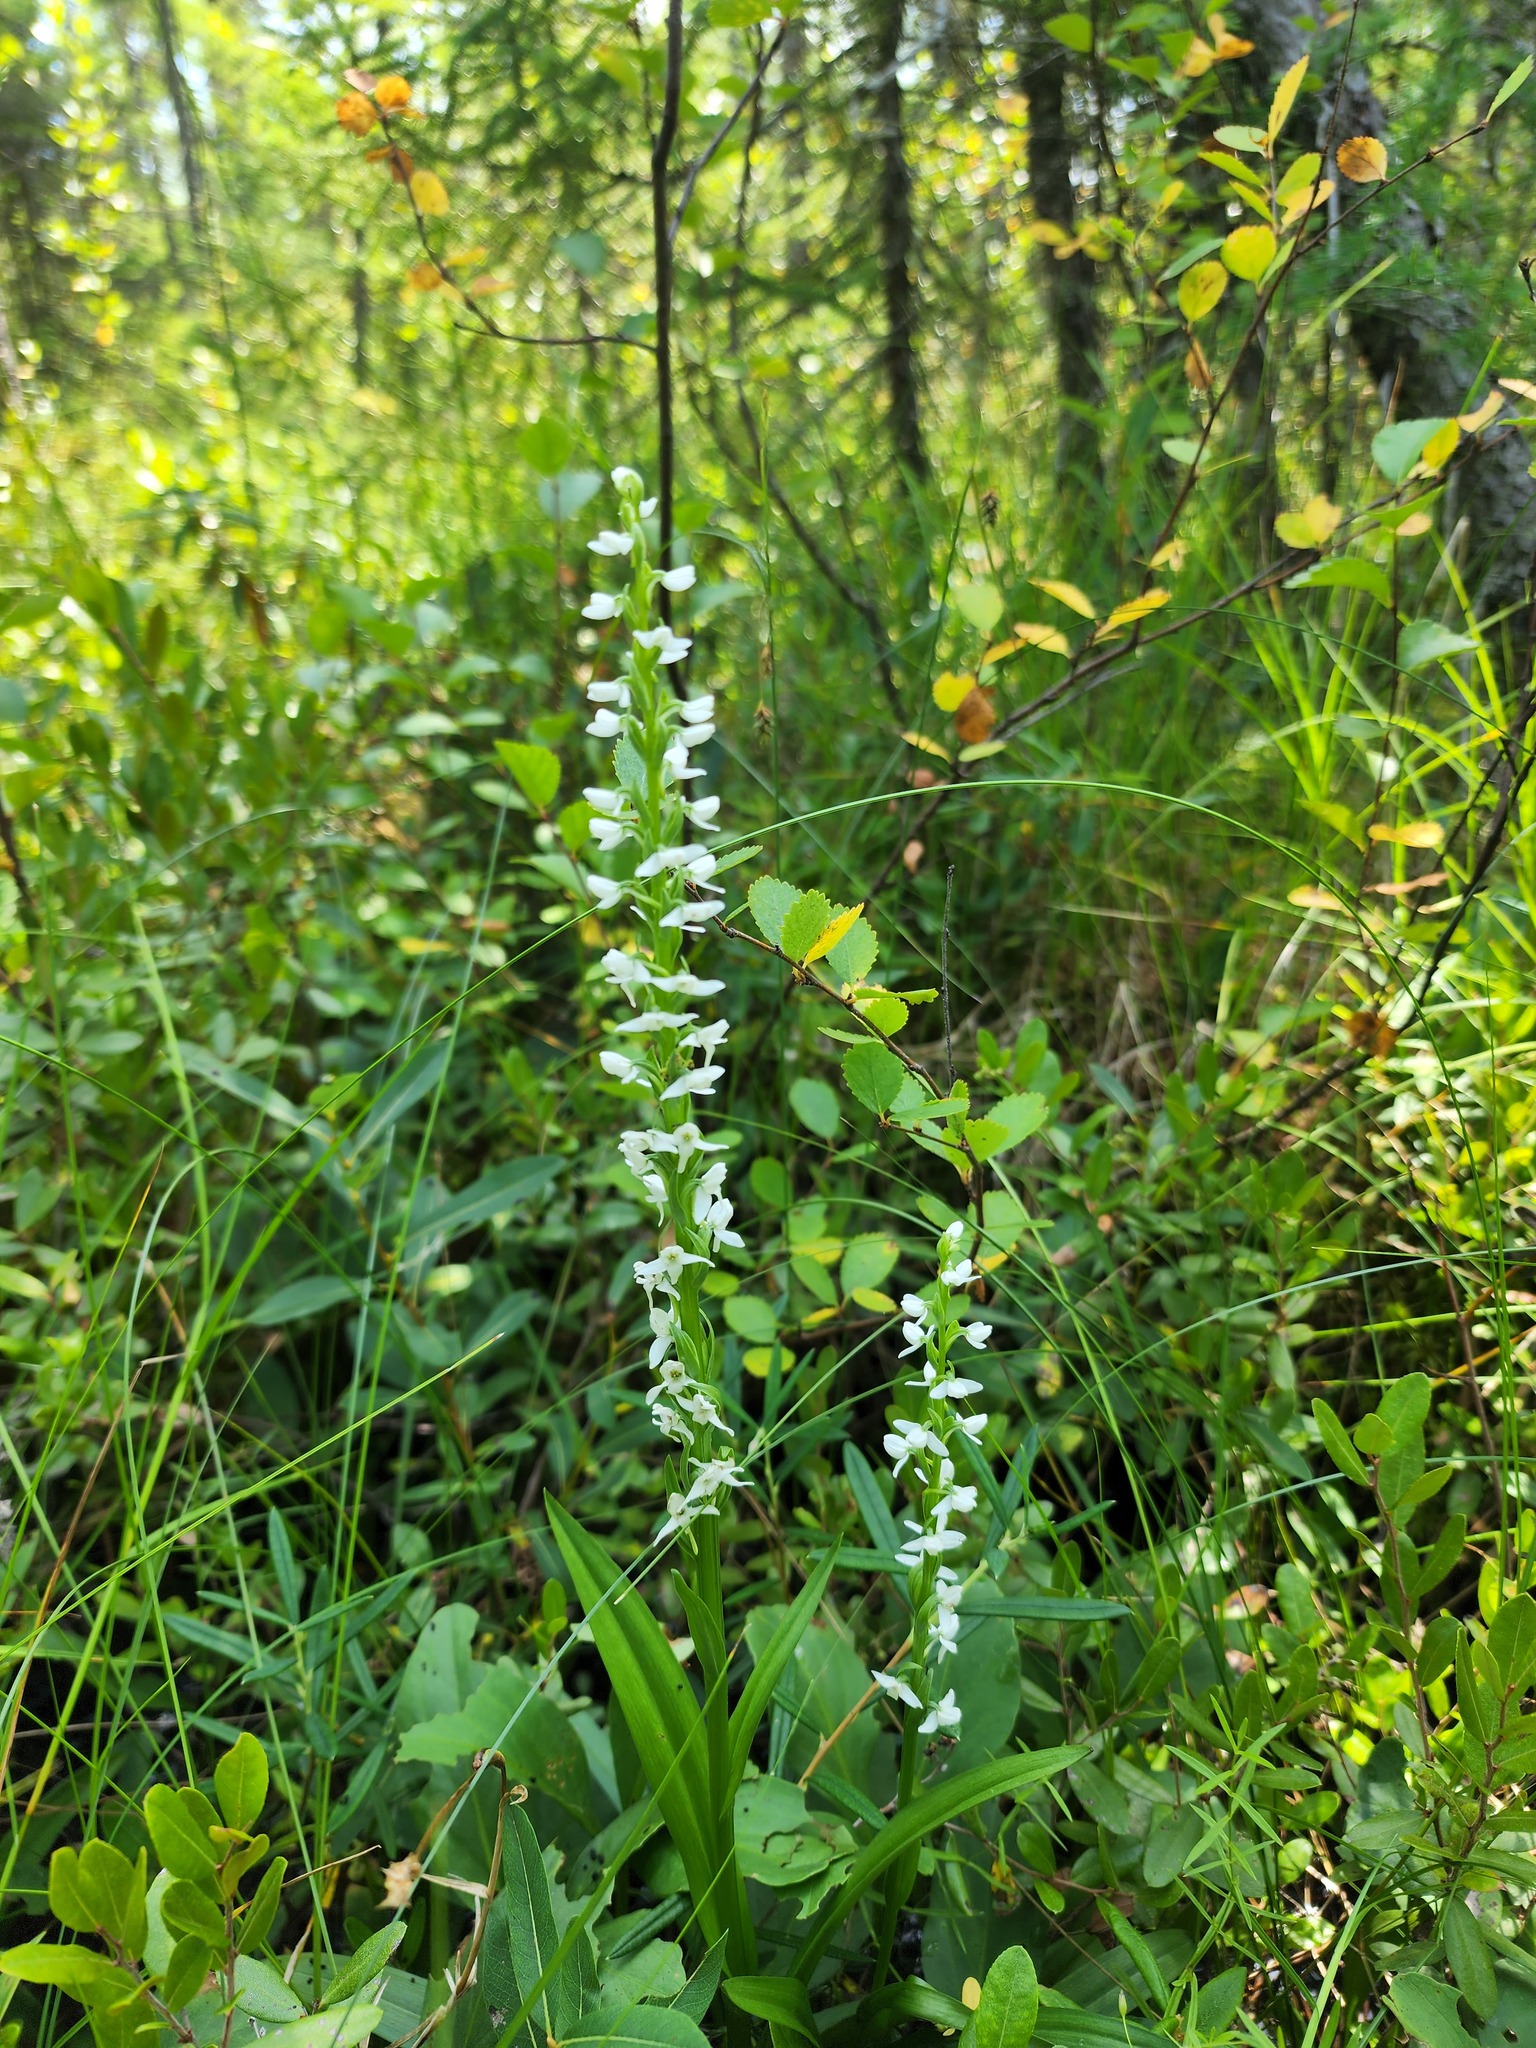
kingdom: Plantae
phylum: Tracheophyta
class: Liliopsida
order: Asparagales
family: Orchidaceae
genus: Platanthera
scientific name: Platanthera dilatata
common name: Bog candles
